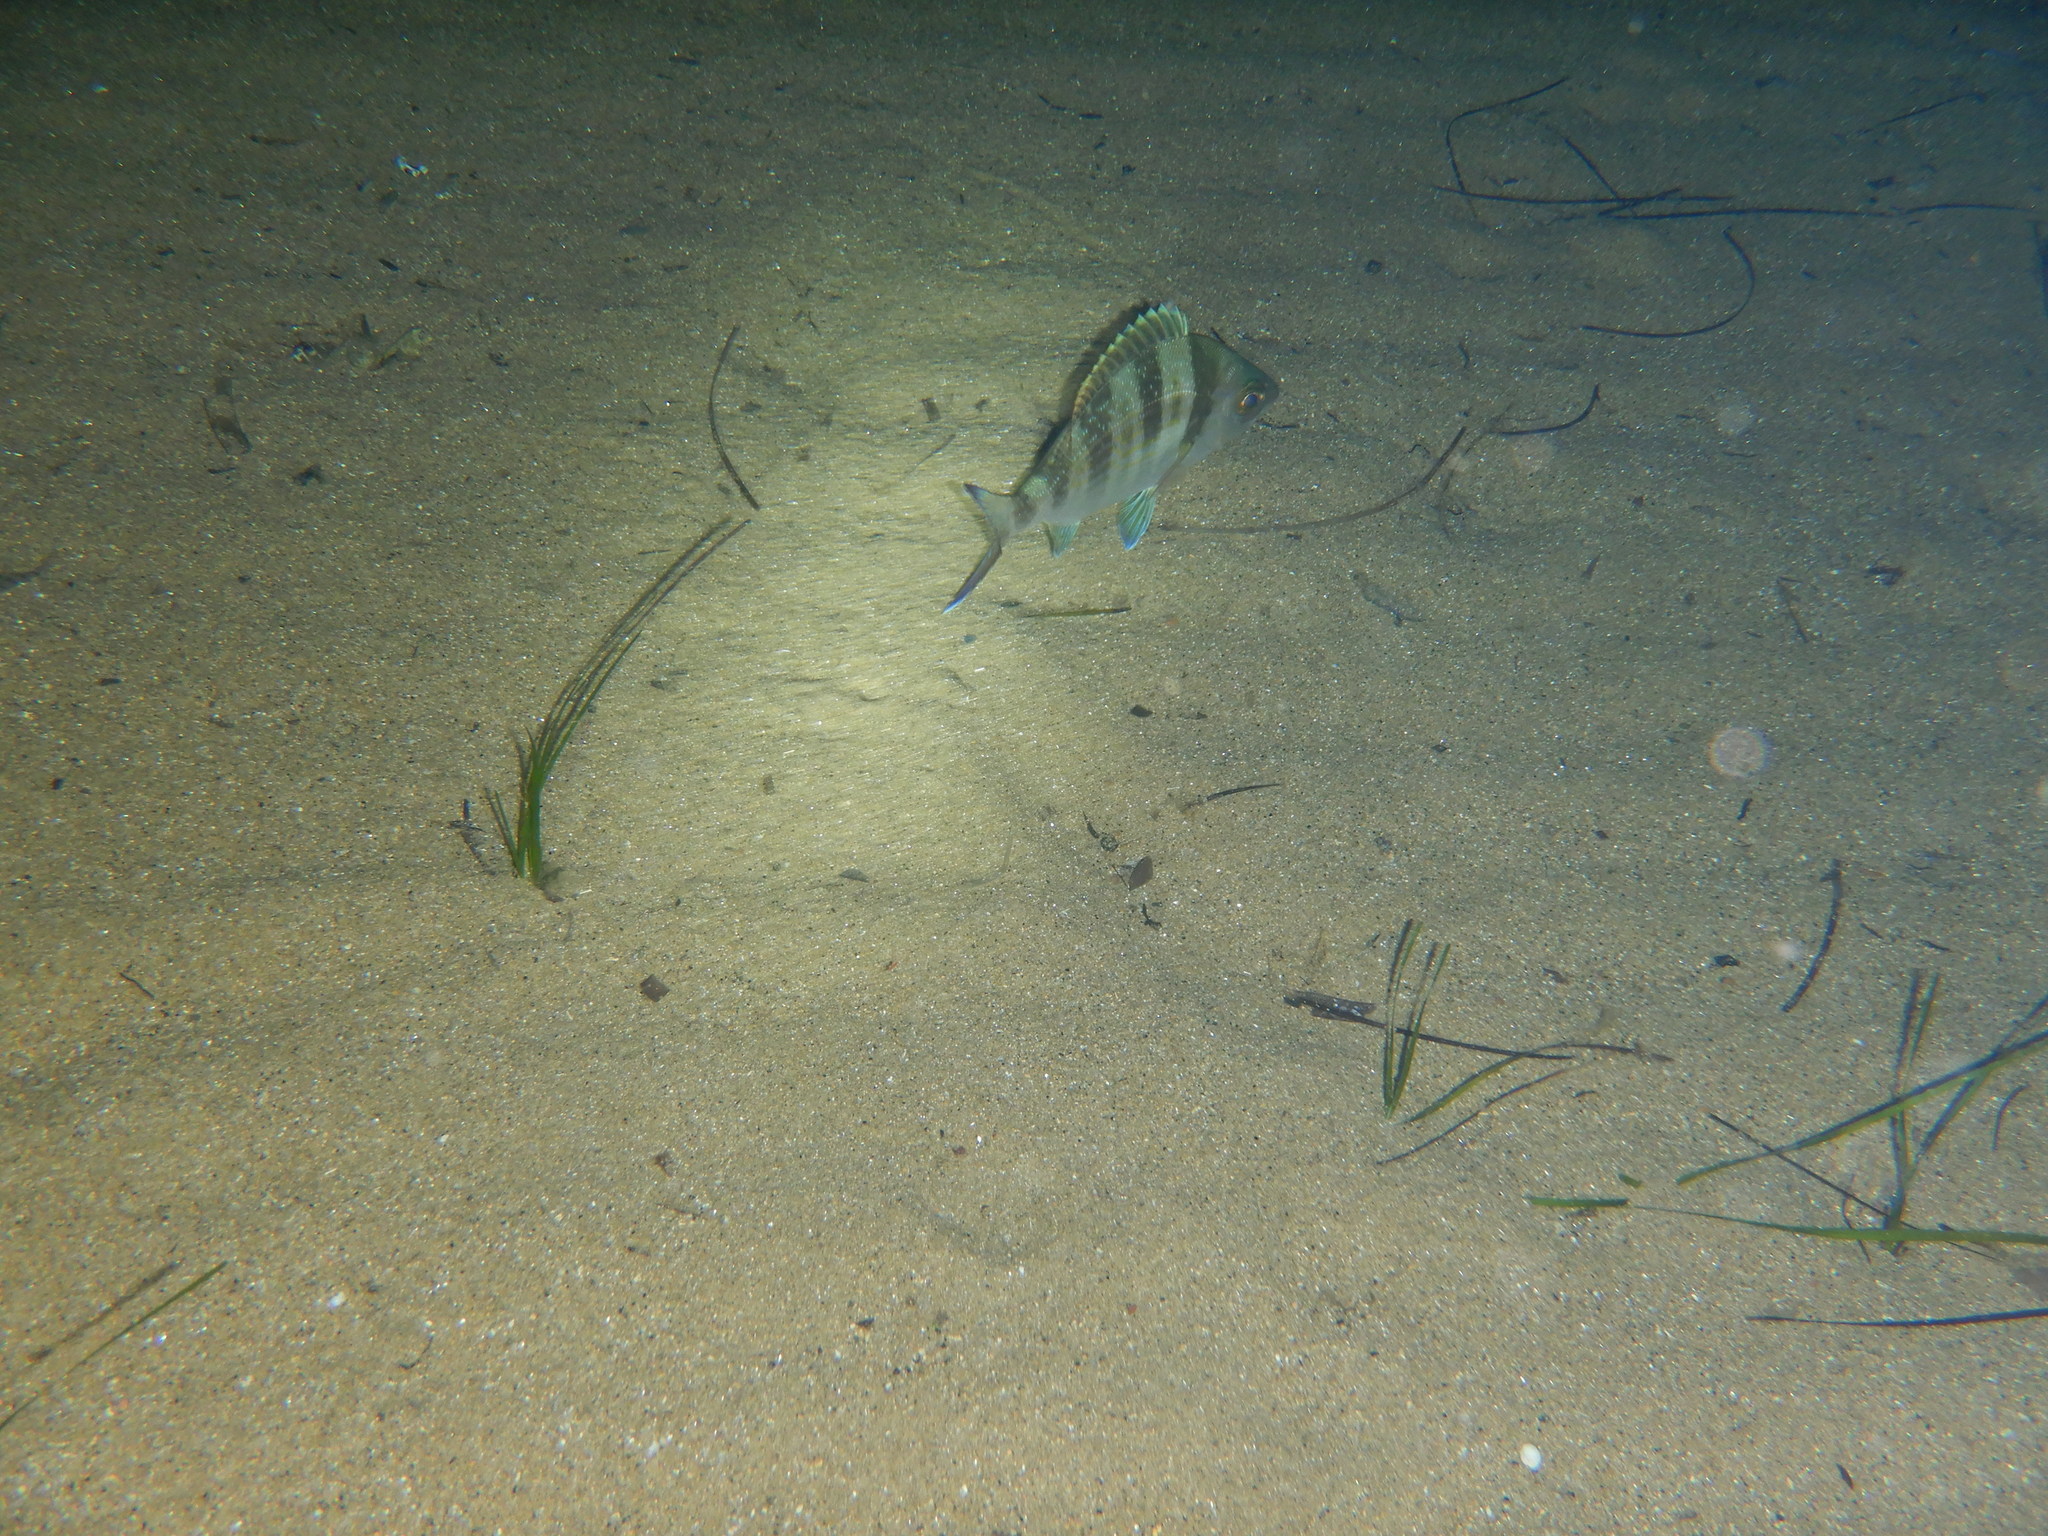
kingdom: Animalia
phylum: Chordata
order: Perciformes
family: Sparidae
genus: Spondyliosoma
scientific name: Spondyliosoma cantharus
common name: Black seabream
